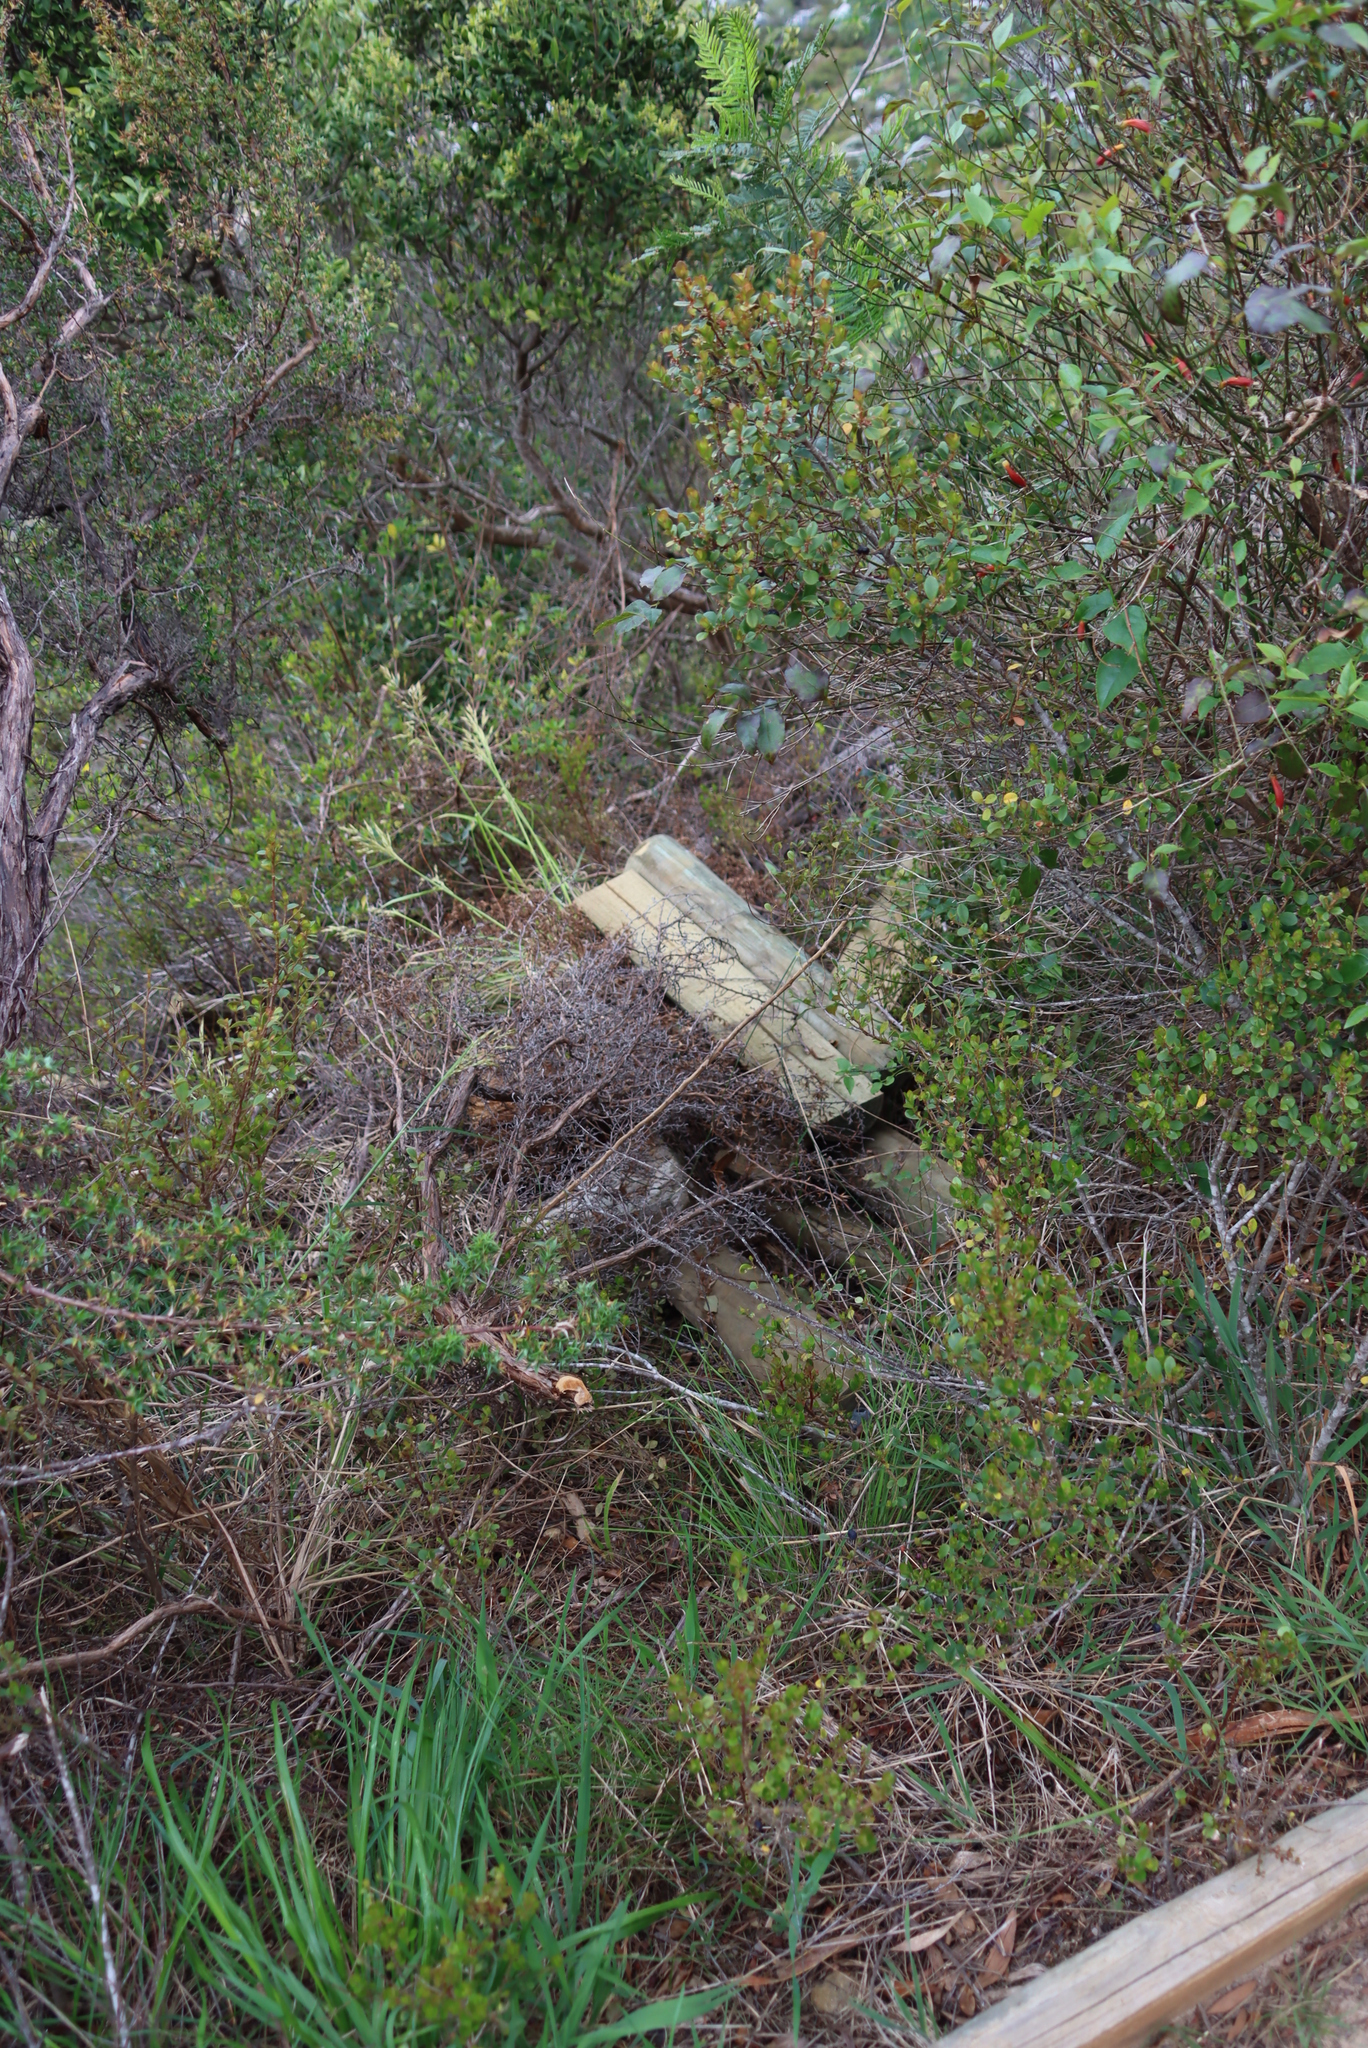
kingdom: Plantae
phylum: Tracheophyta
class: Magnoliopsida
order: Lamiales
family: Stilbaceae
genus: Halleria
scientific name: Halleria lucida
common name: Tree fuschia
